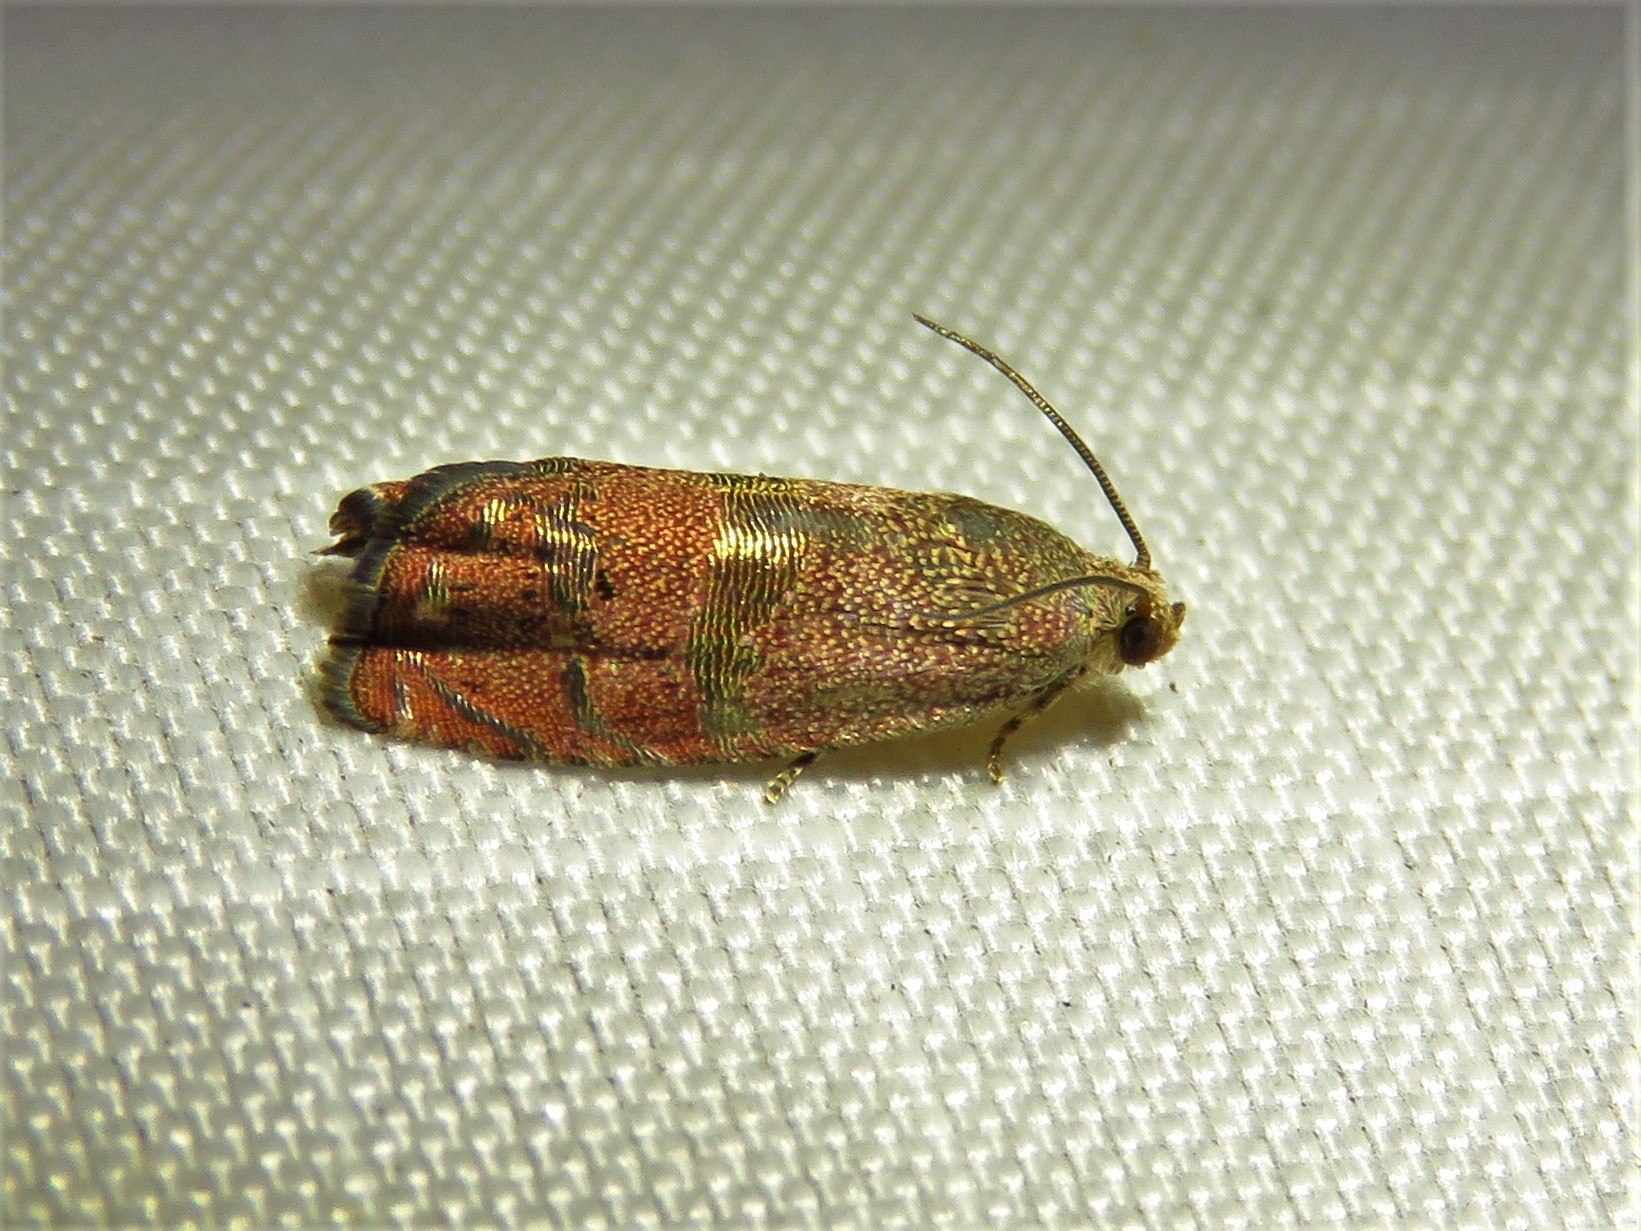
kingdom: Animalia
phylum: Arthropoda
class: Insecta
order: Lepidoptera
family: Tortricidae
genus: Cydia
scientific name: Cydia latiferreana
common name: Filbertworm moth
